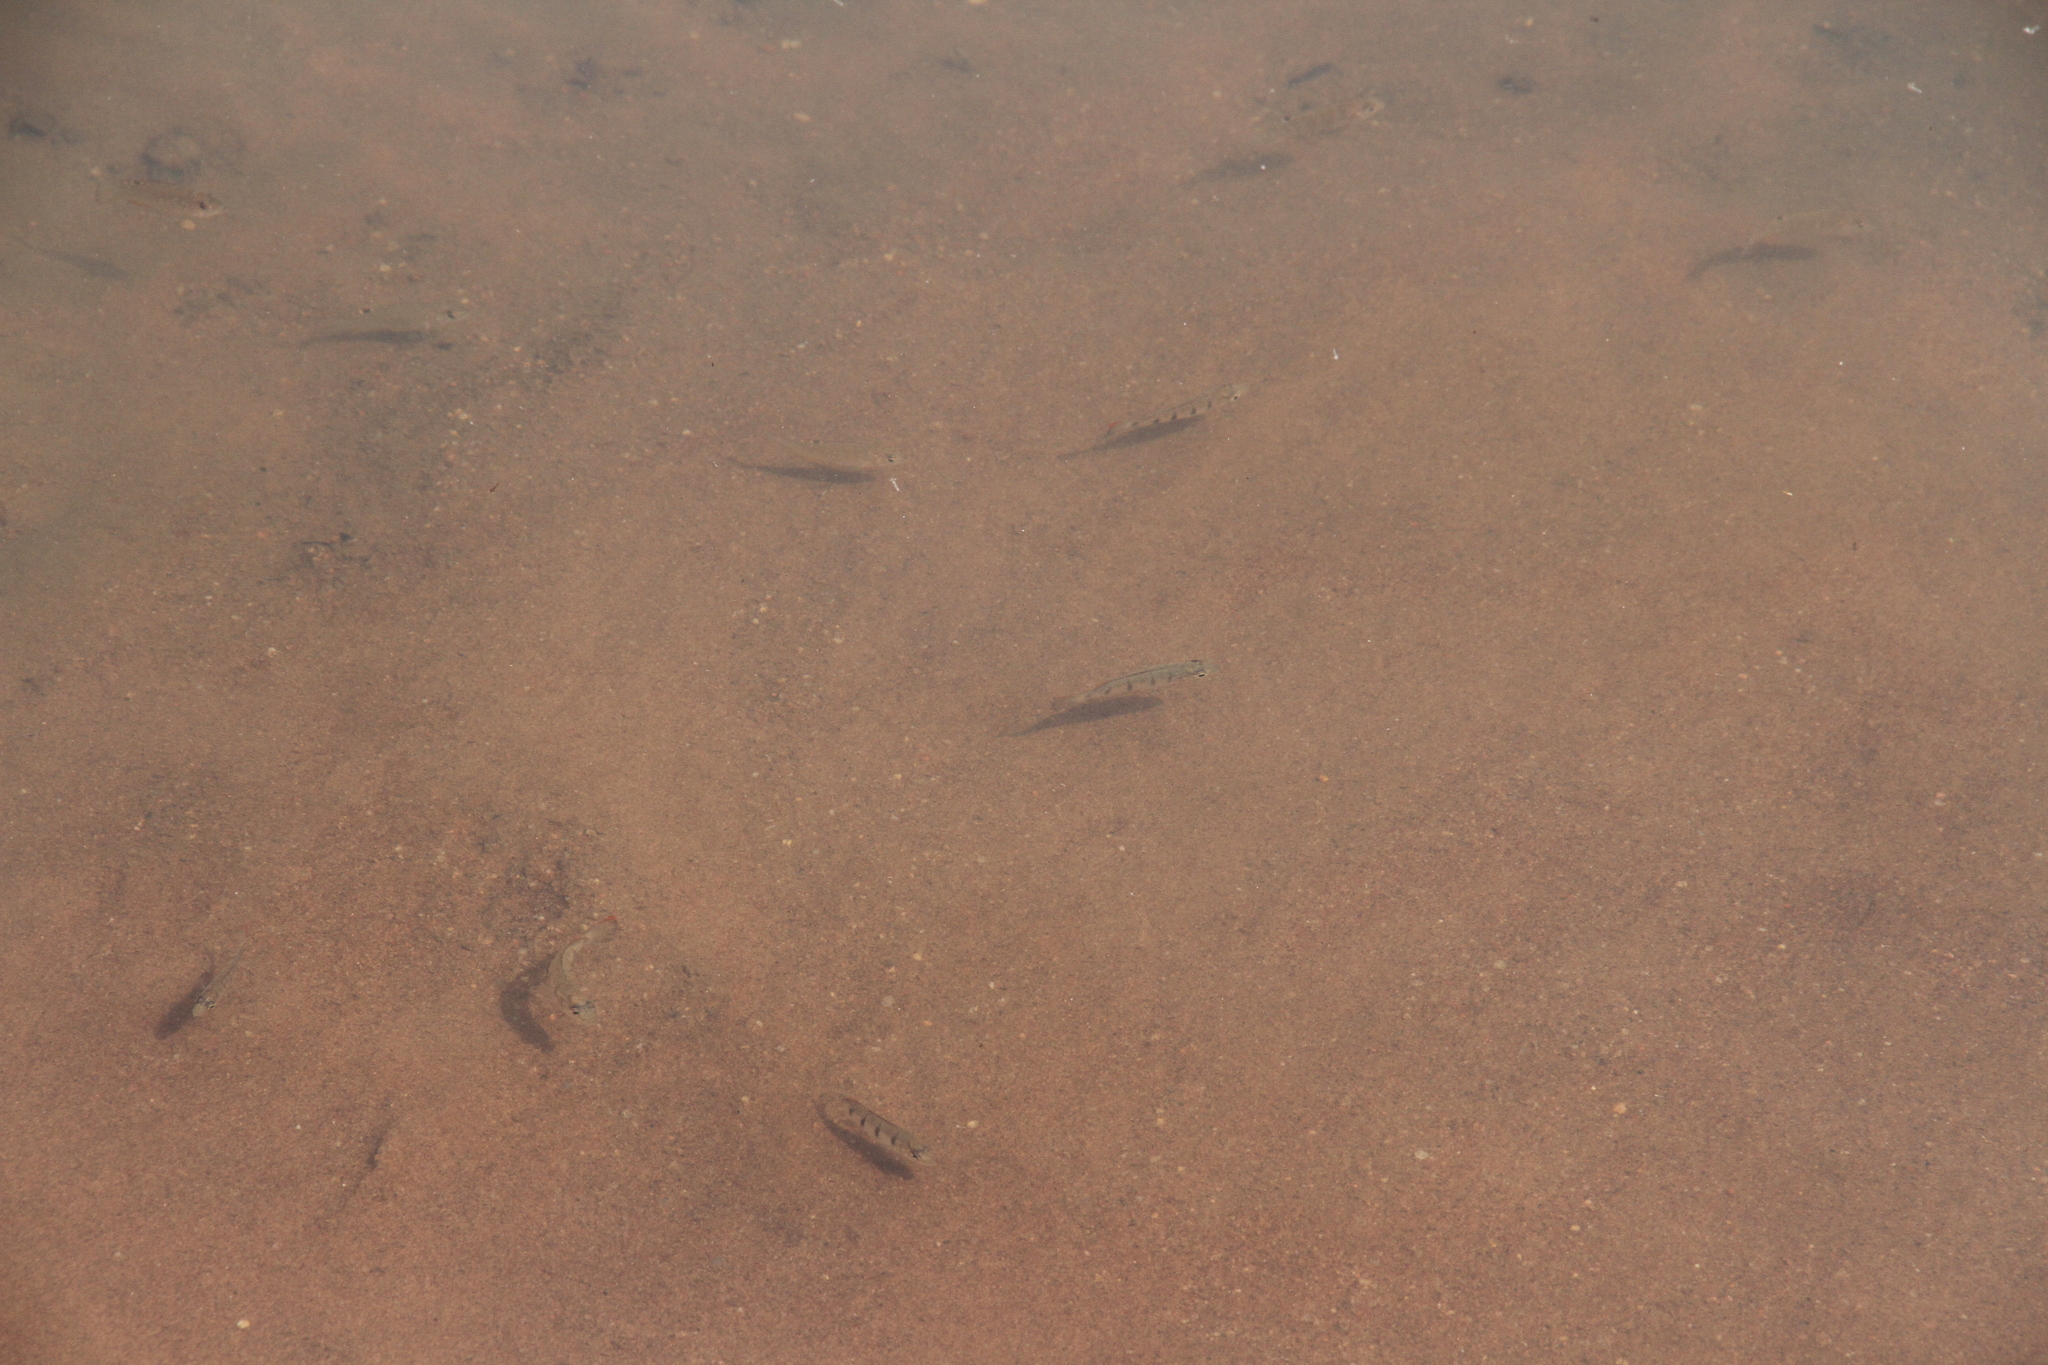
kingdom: Animalia
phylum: Chordata
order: Perciformes
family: Cichlidae
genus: Hemichromis
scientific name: Hemichromis fasciatus
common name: Banded jewelfish
